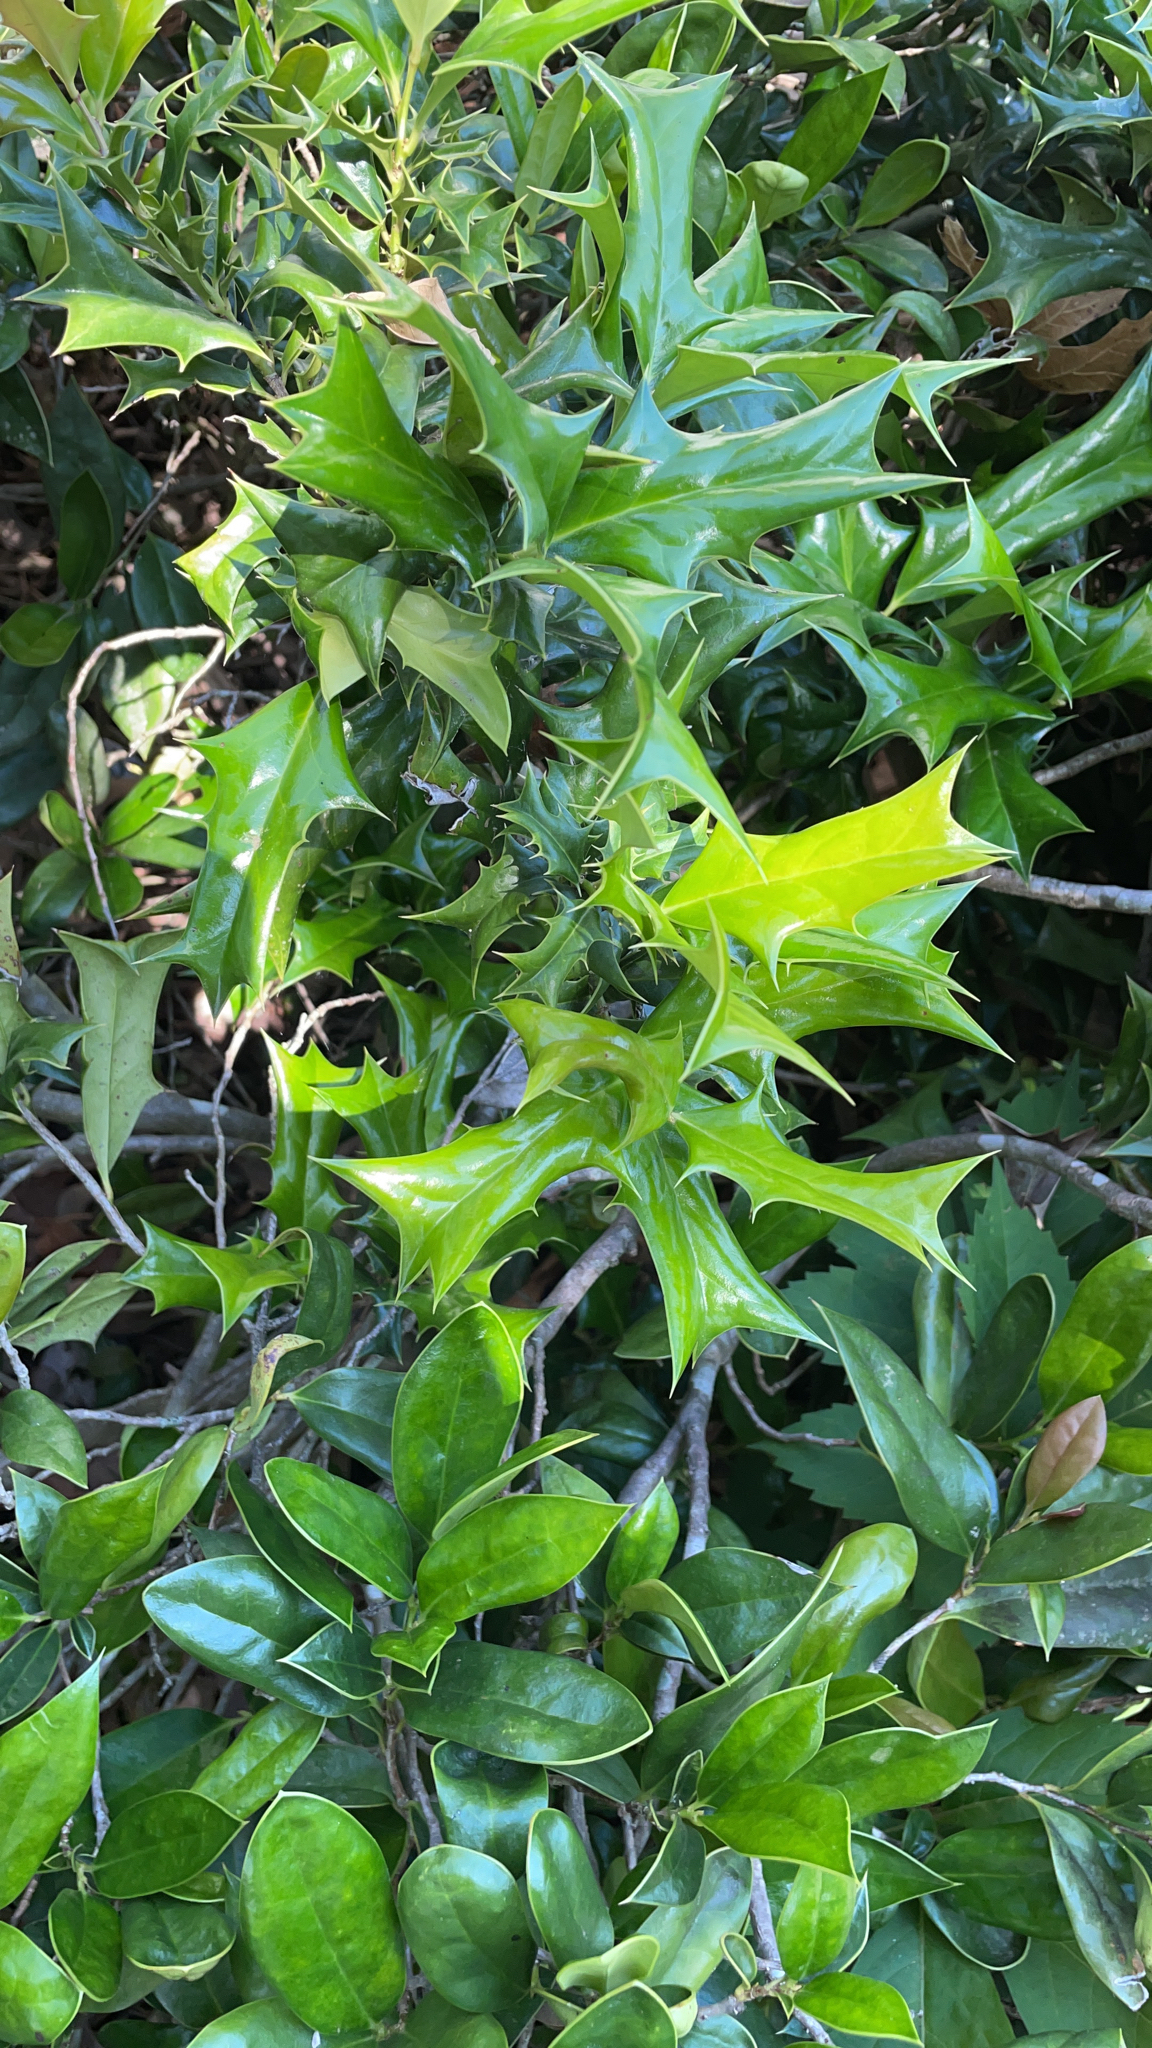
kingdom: Plantae
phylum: Tracheophyta
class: Magnoliopsida
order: Aquifoliales
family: Aquifoliaceae
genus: Ilex
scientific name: Ilex cornuta
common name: Chinese holly
